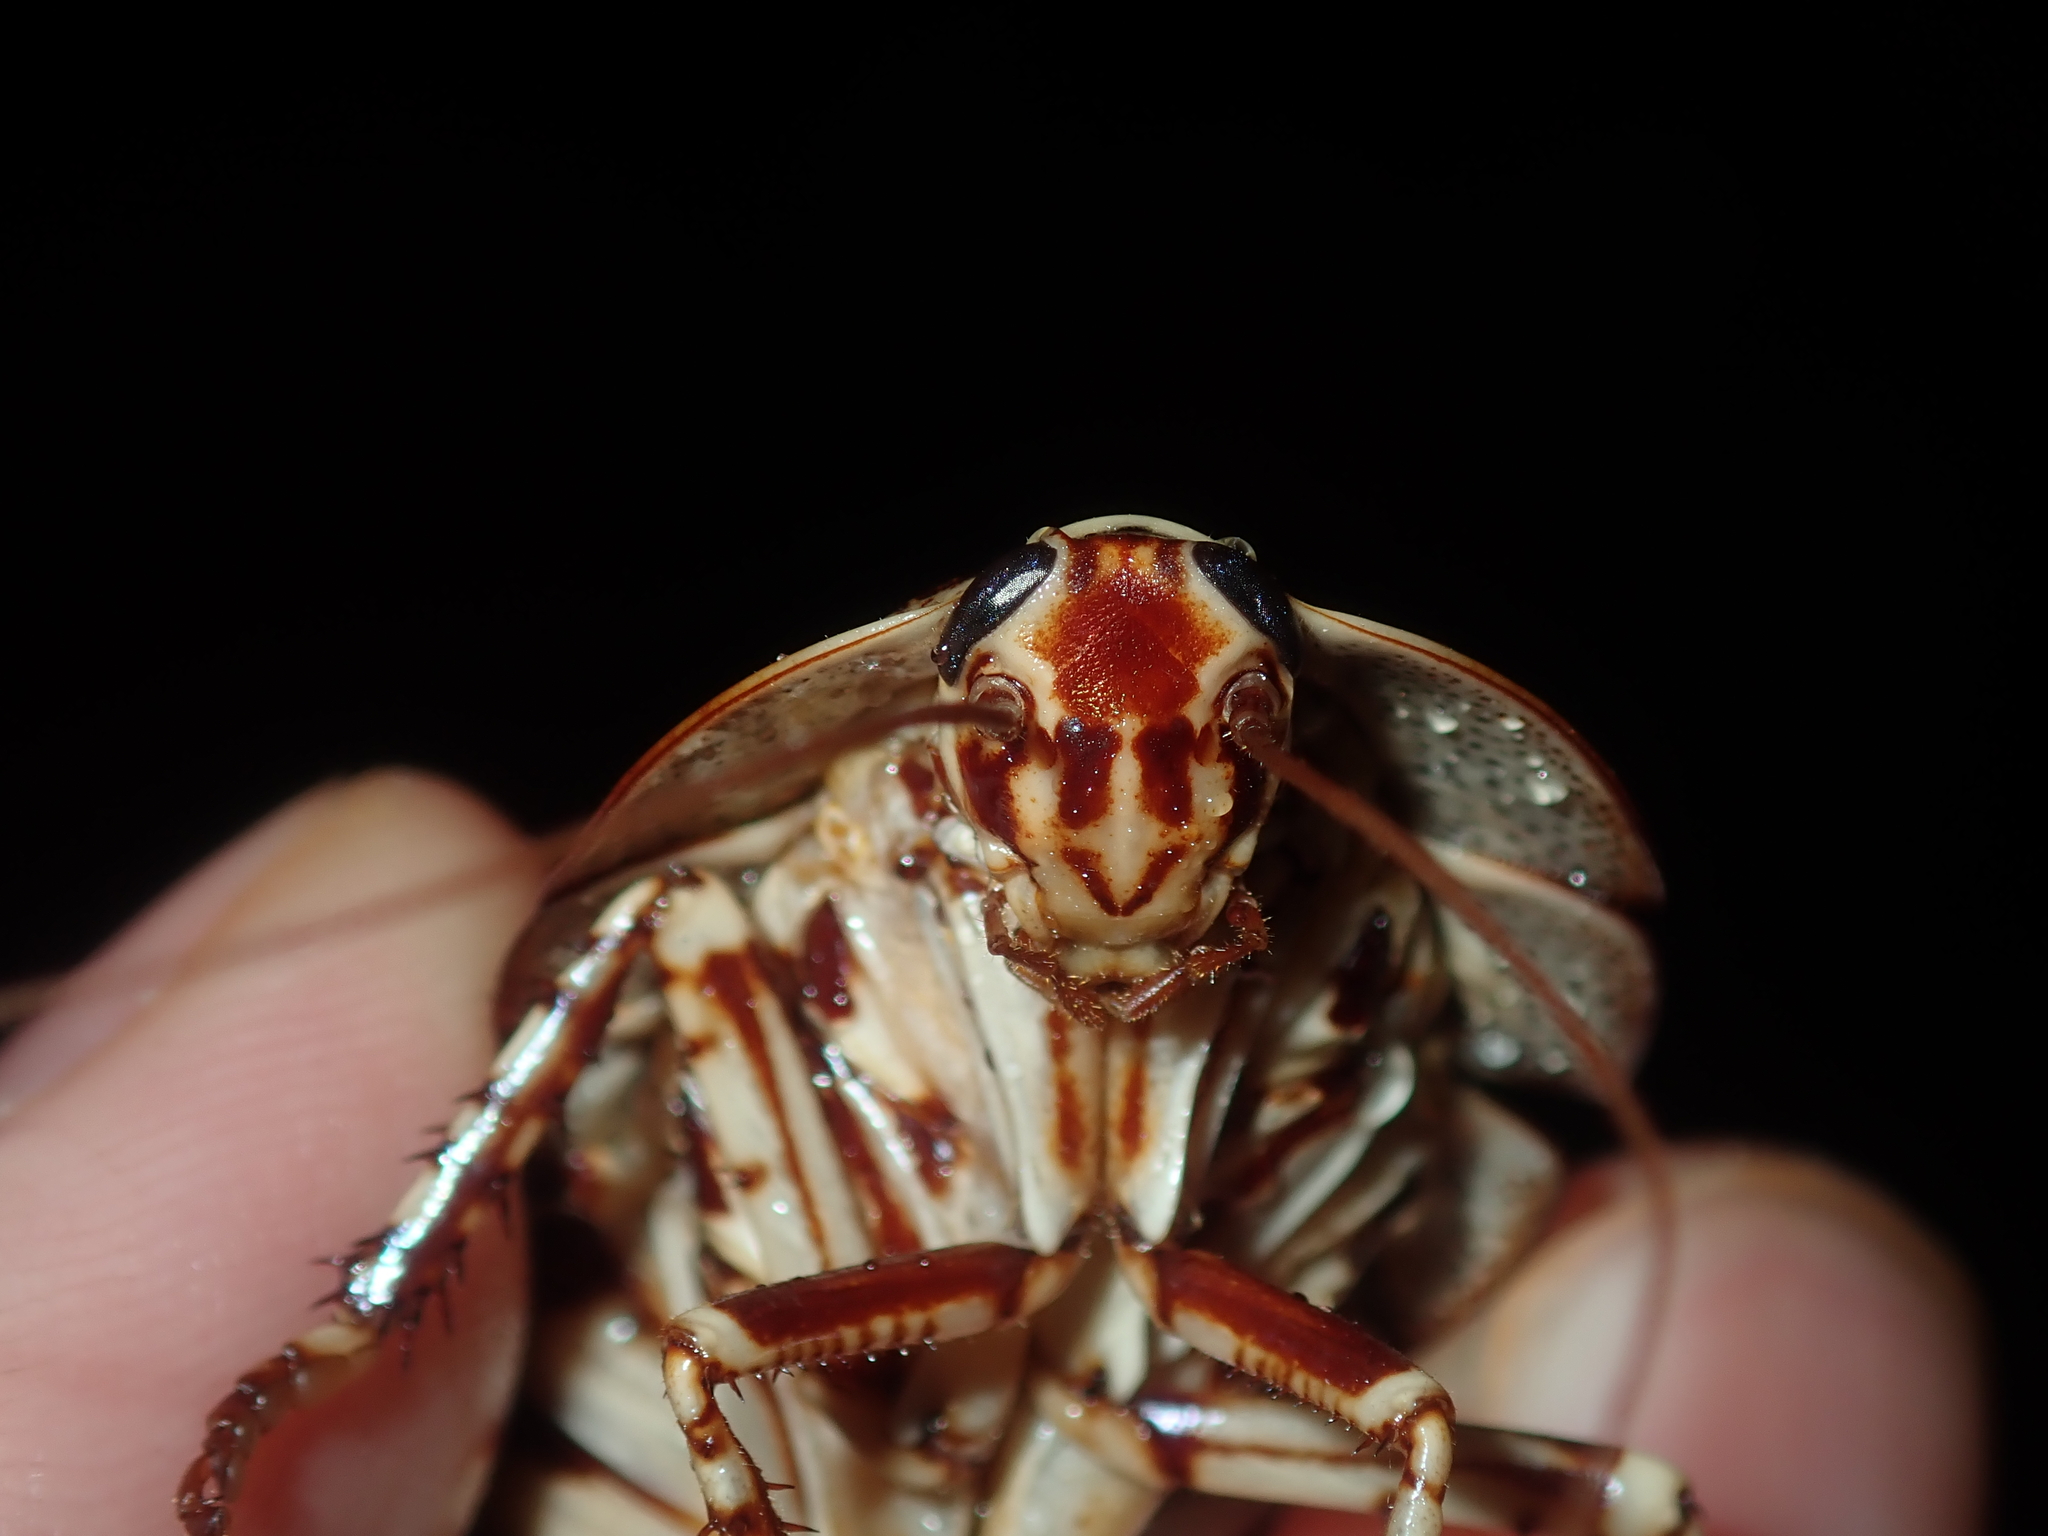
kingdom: Animalia
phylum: Arthropoda
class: Insecta
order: Blattodea
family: Blattidae
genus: Polyzosteria
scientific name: Polyzosteria pulchra
